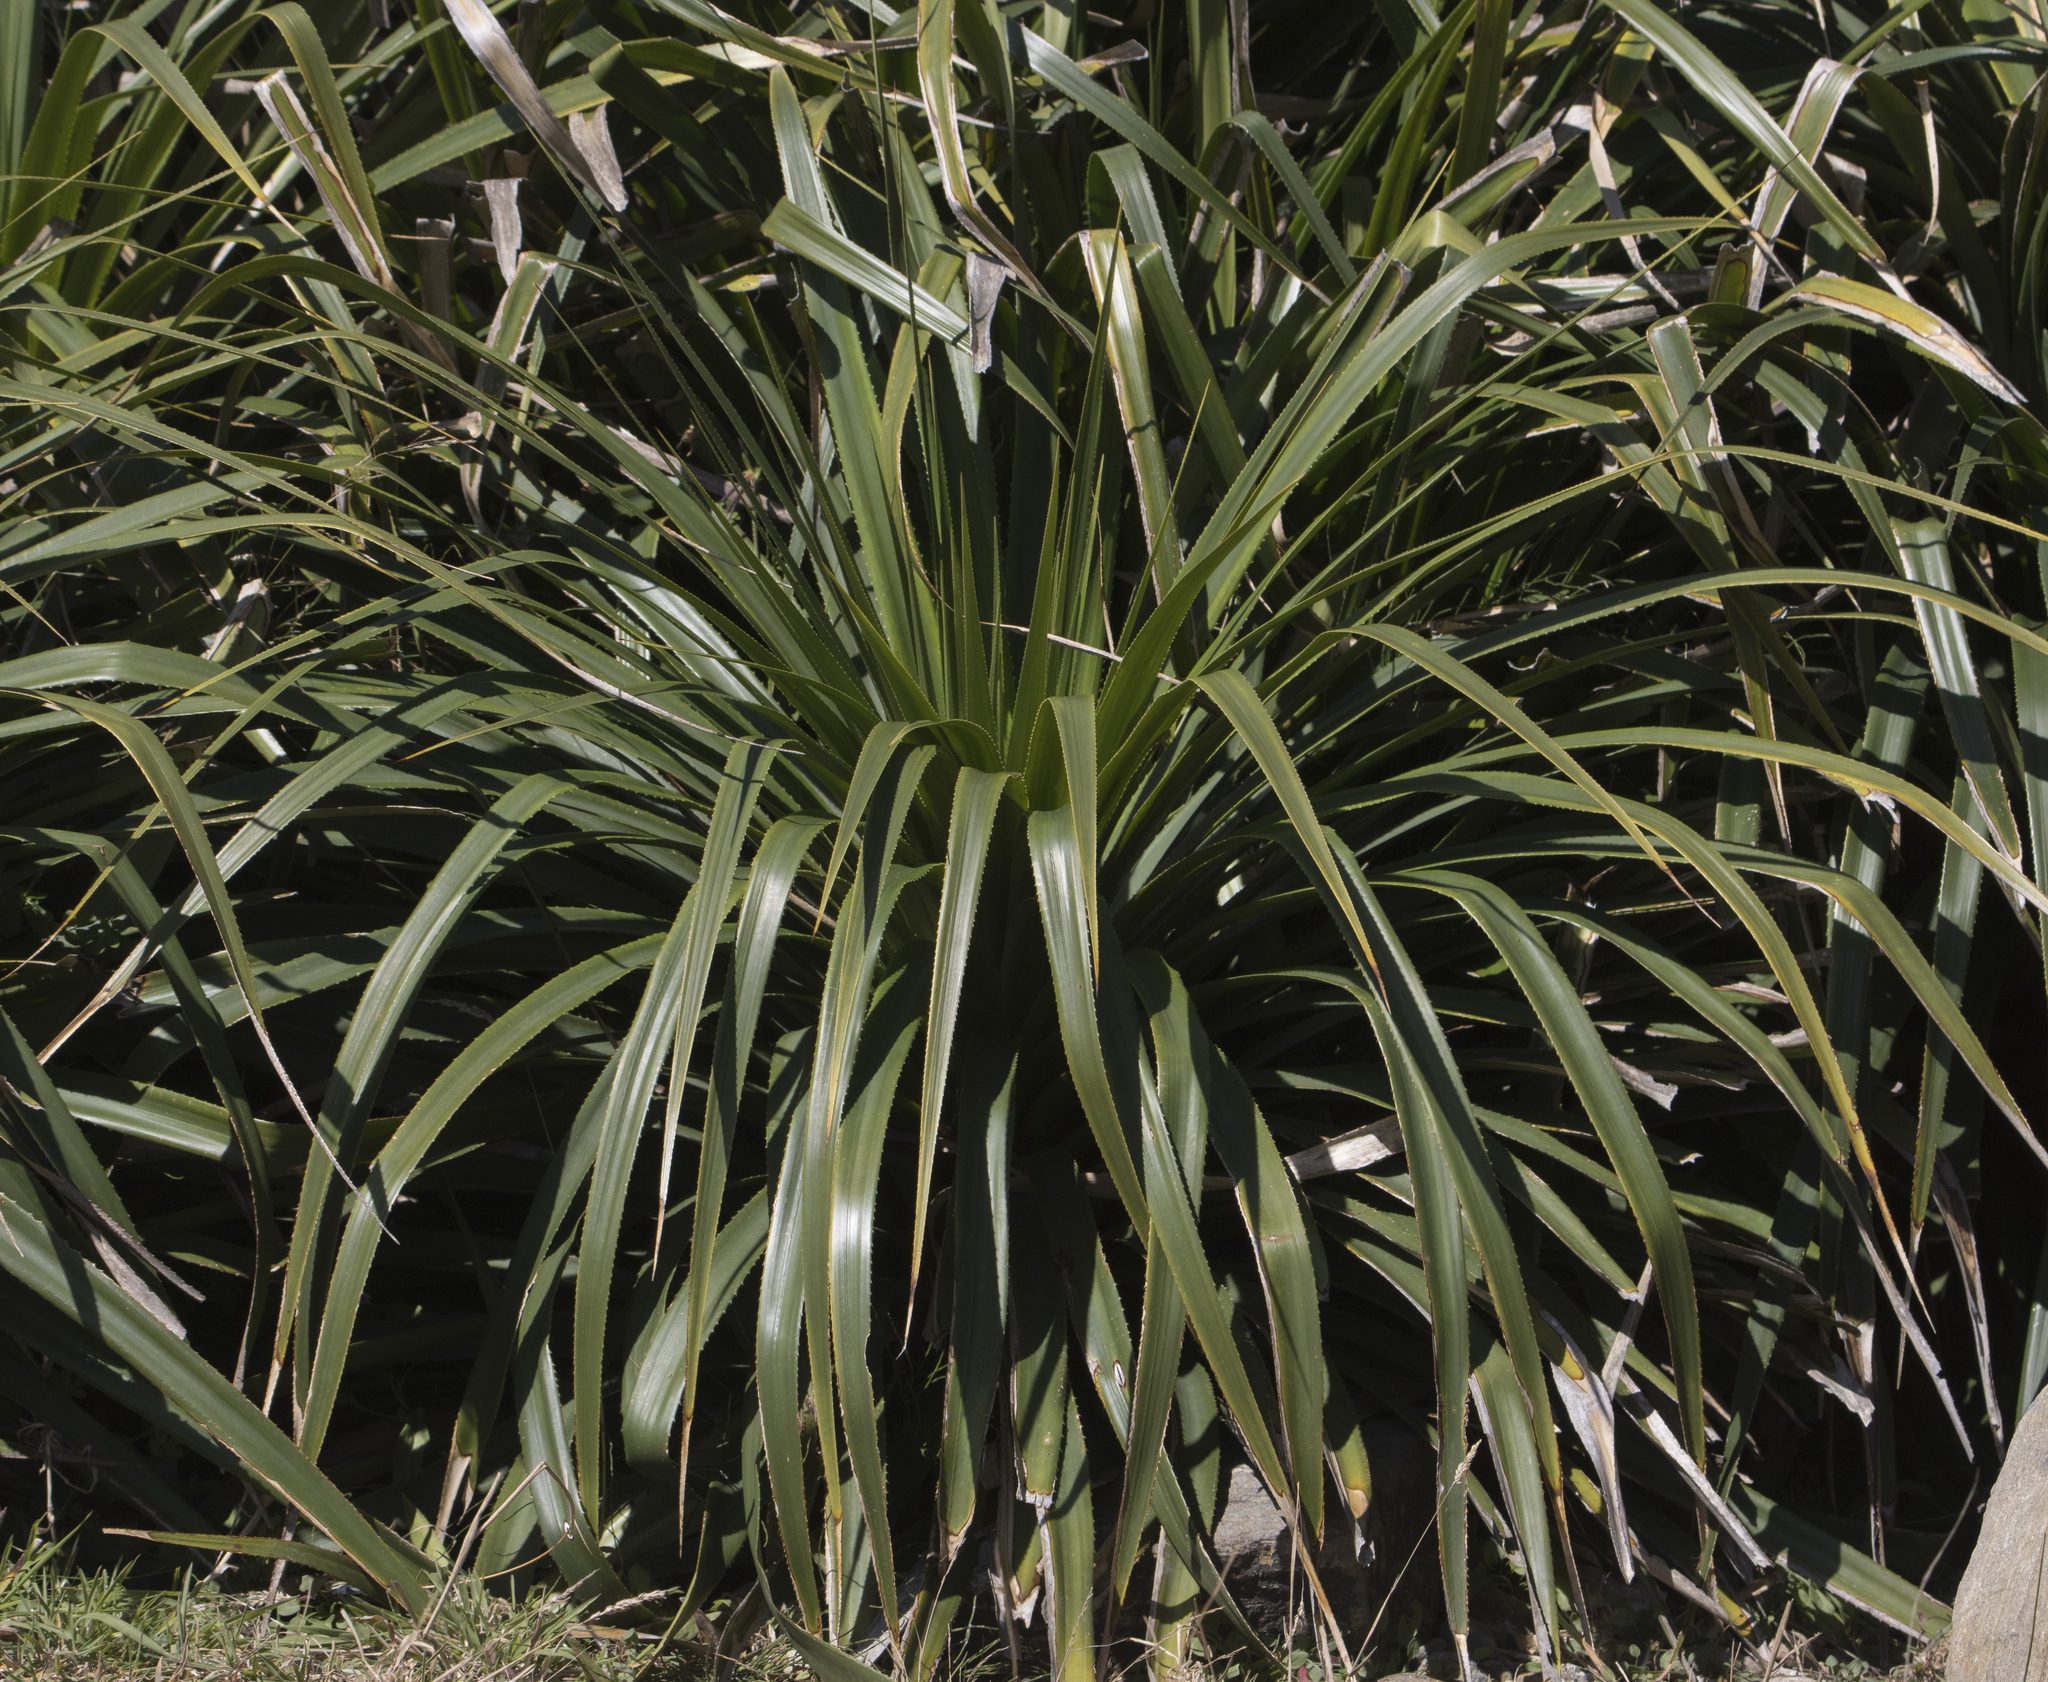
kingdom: Plantae
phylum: Tracheophyta
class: Liliopsida
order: Poales
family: Bromeliaceae
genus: Greigia
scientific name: Greigia sphacelata
